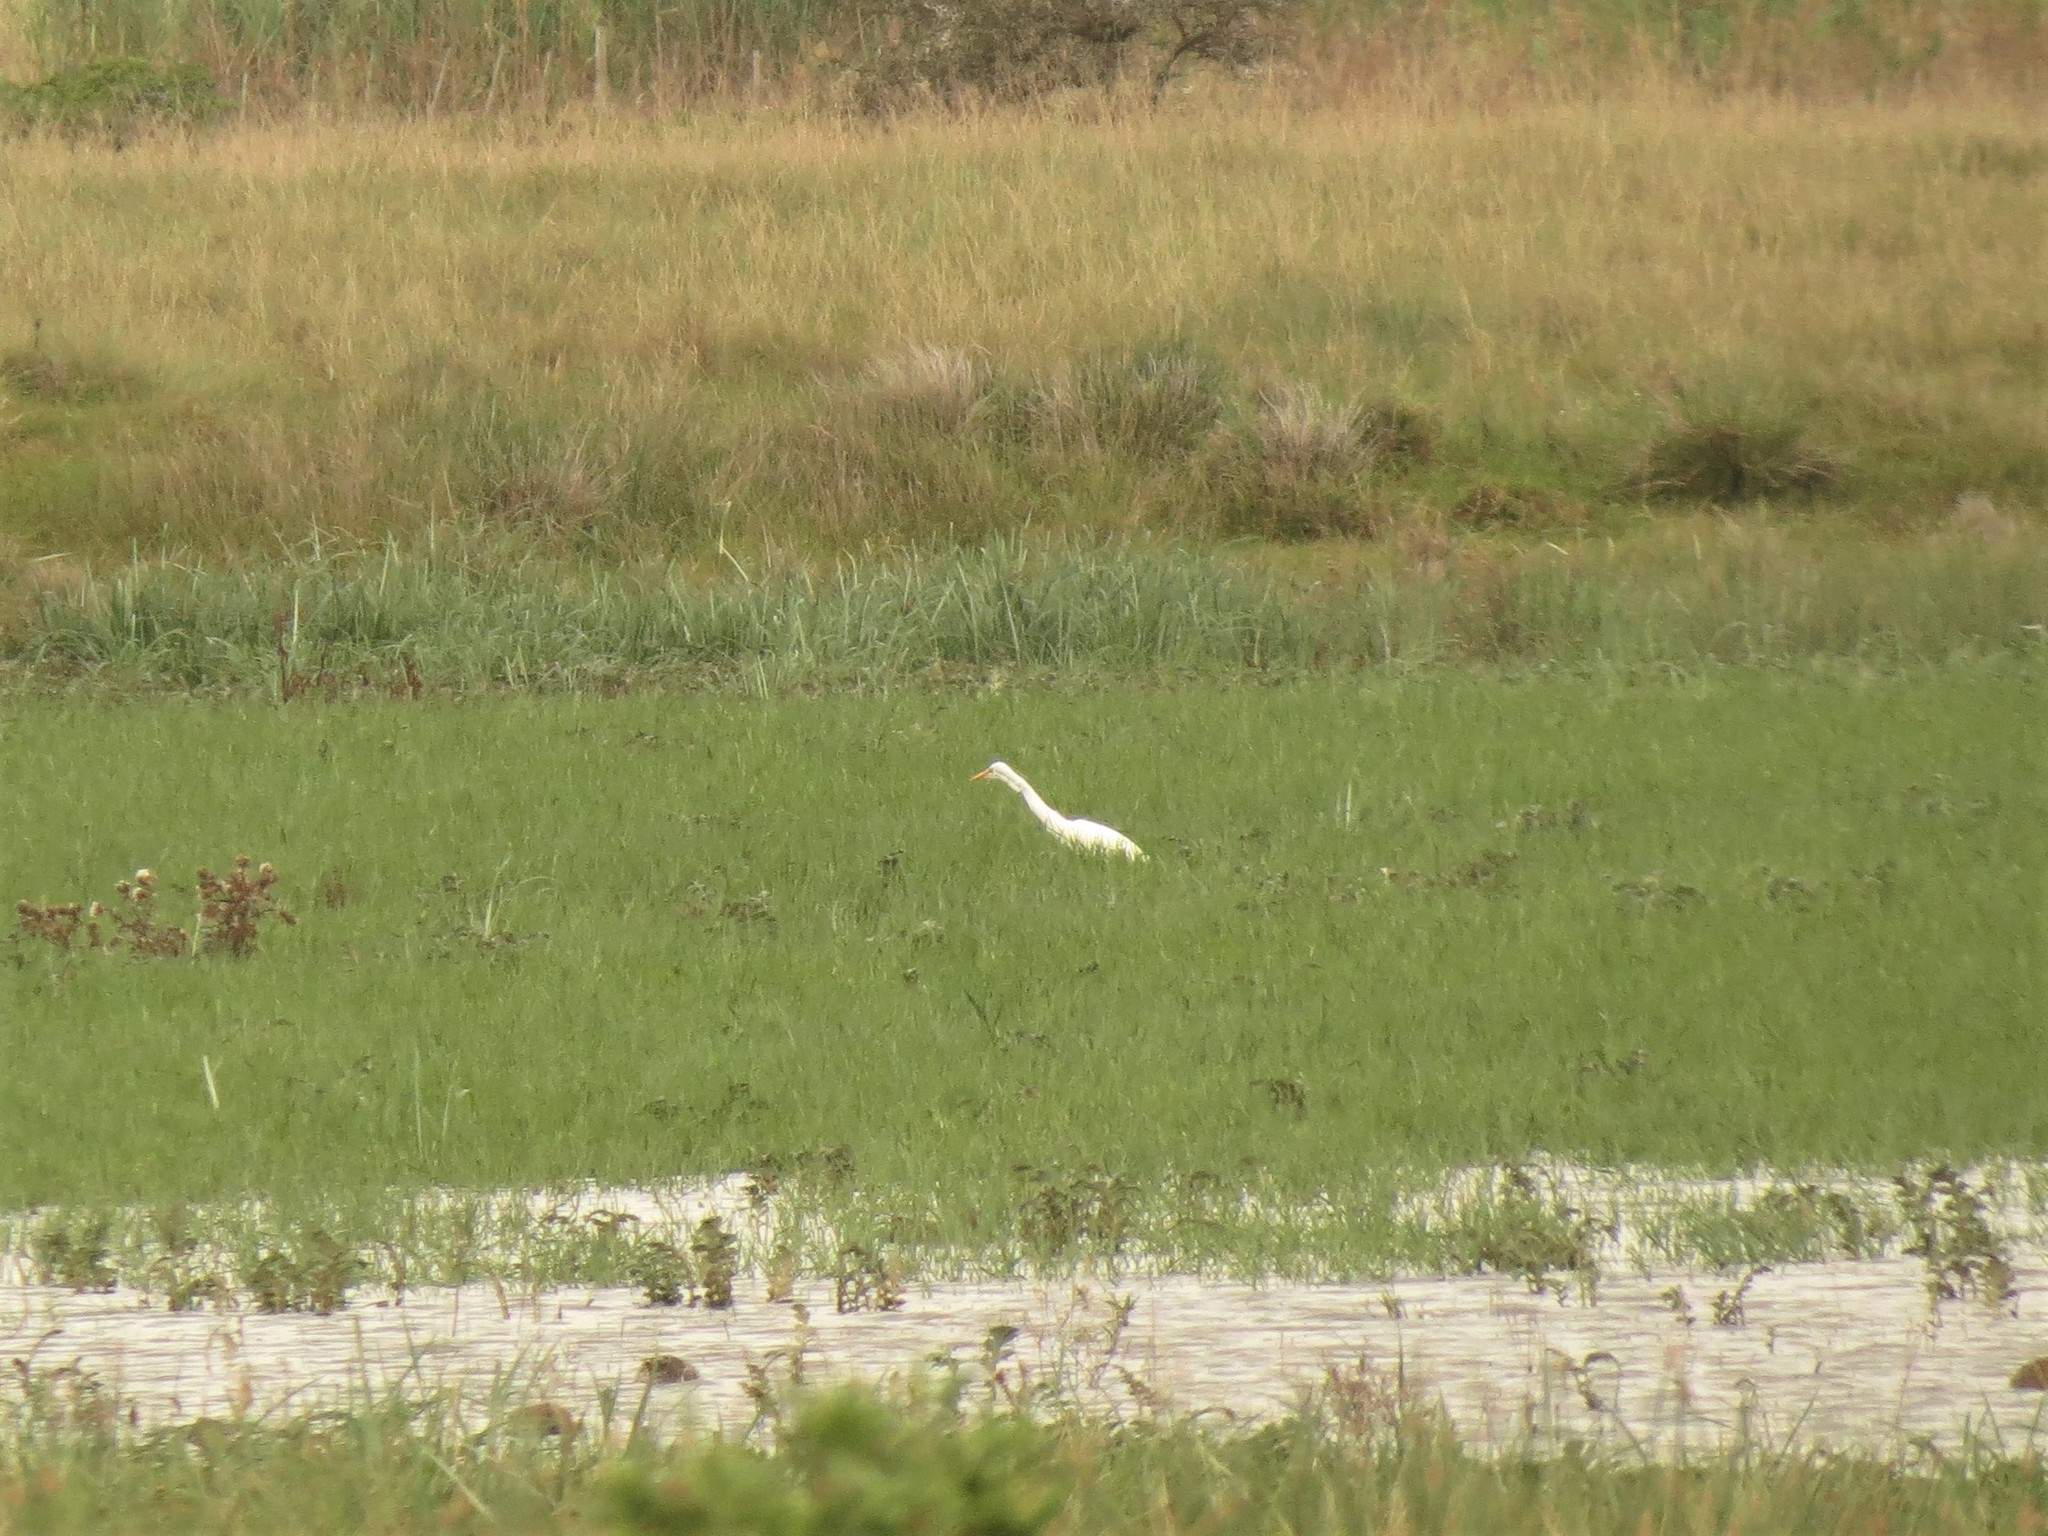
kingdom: Animalia
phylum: Chordata
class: Aves
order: Pelecaniformes
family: Ardeidae
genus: Egretta
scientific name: Egretta intermedia
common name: Intermediate egret
